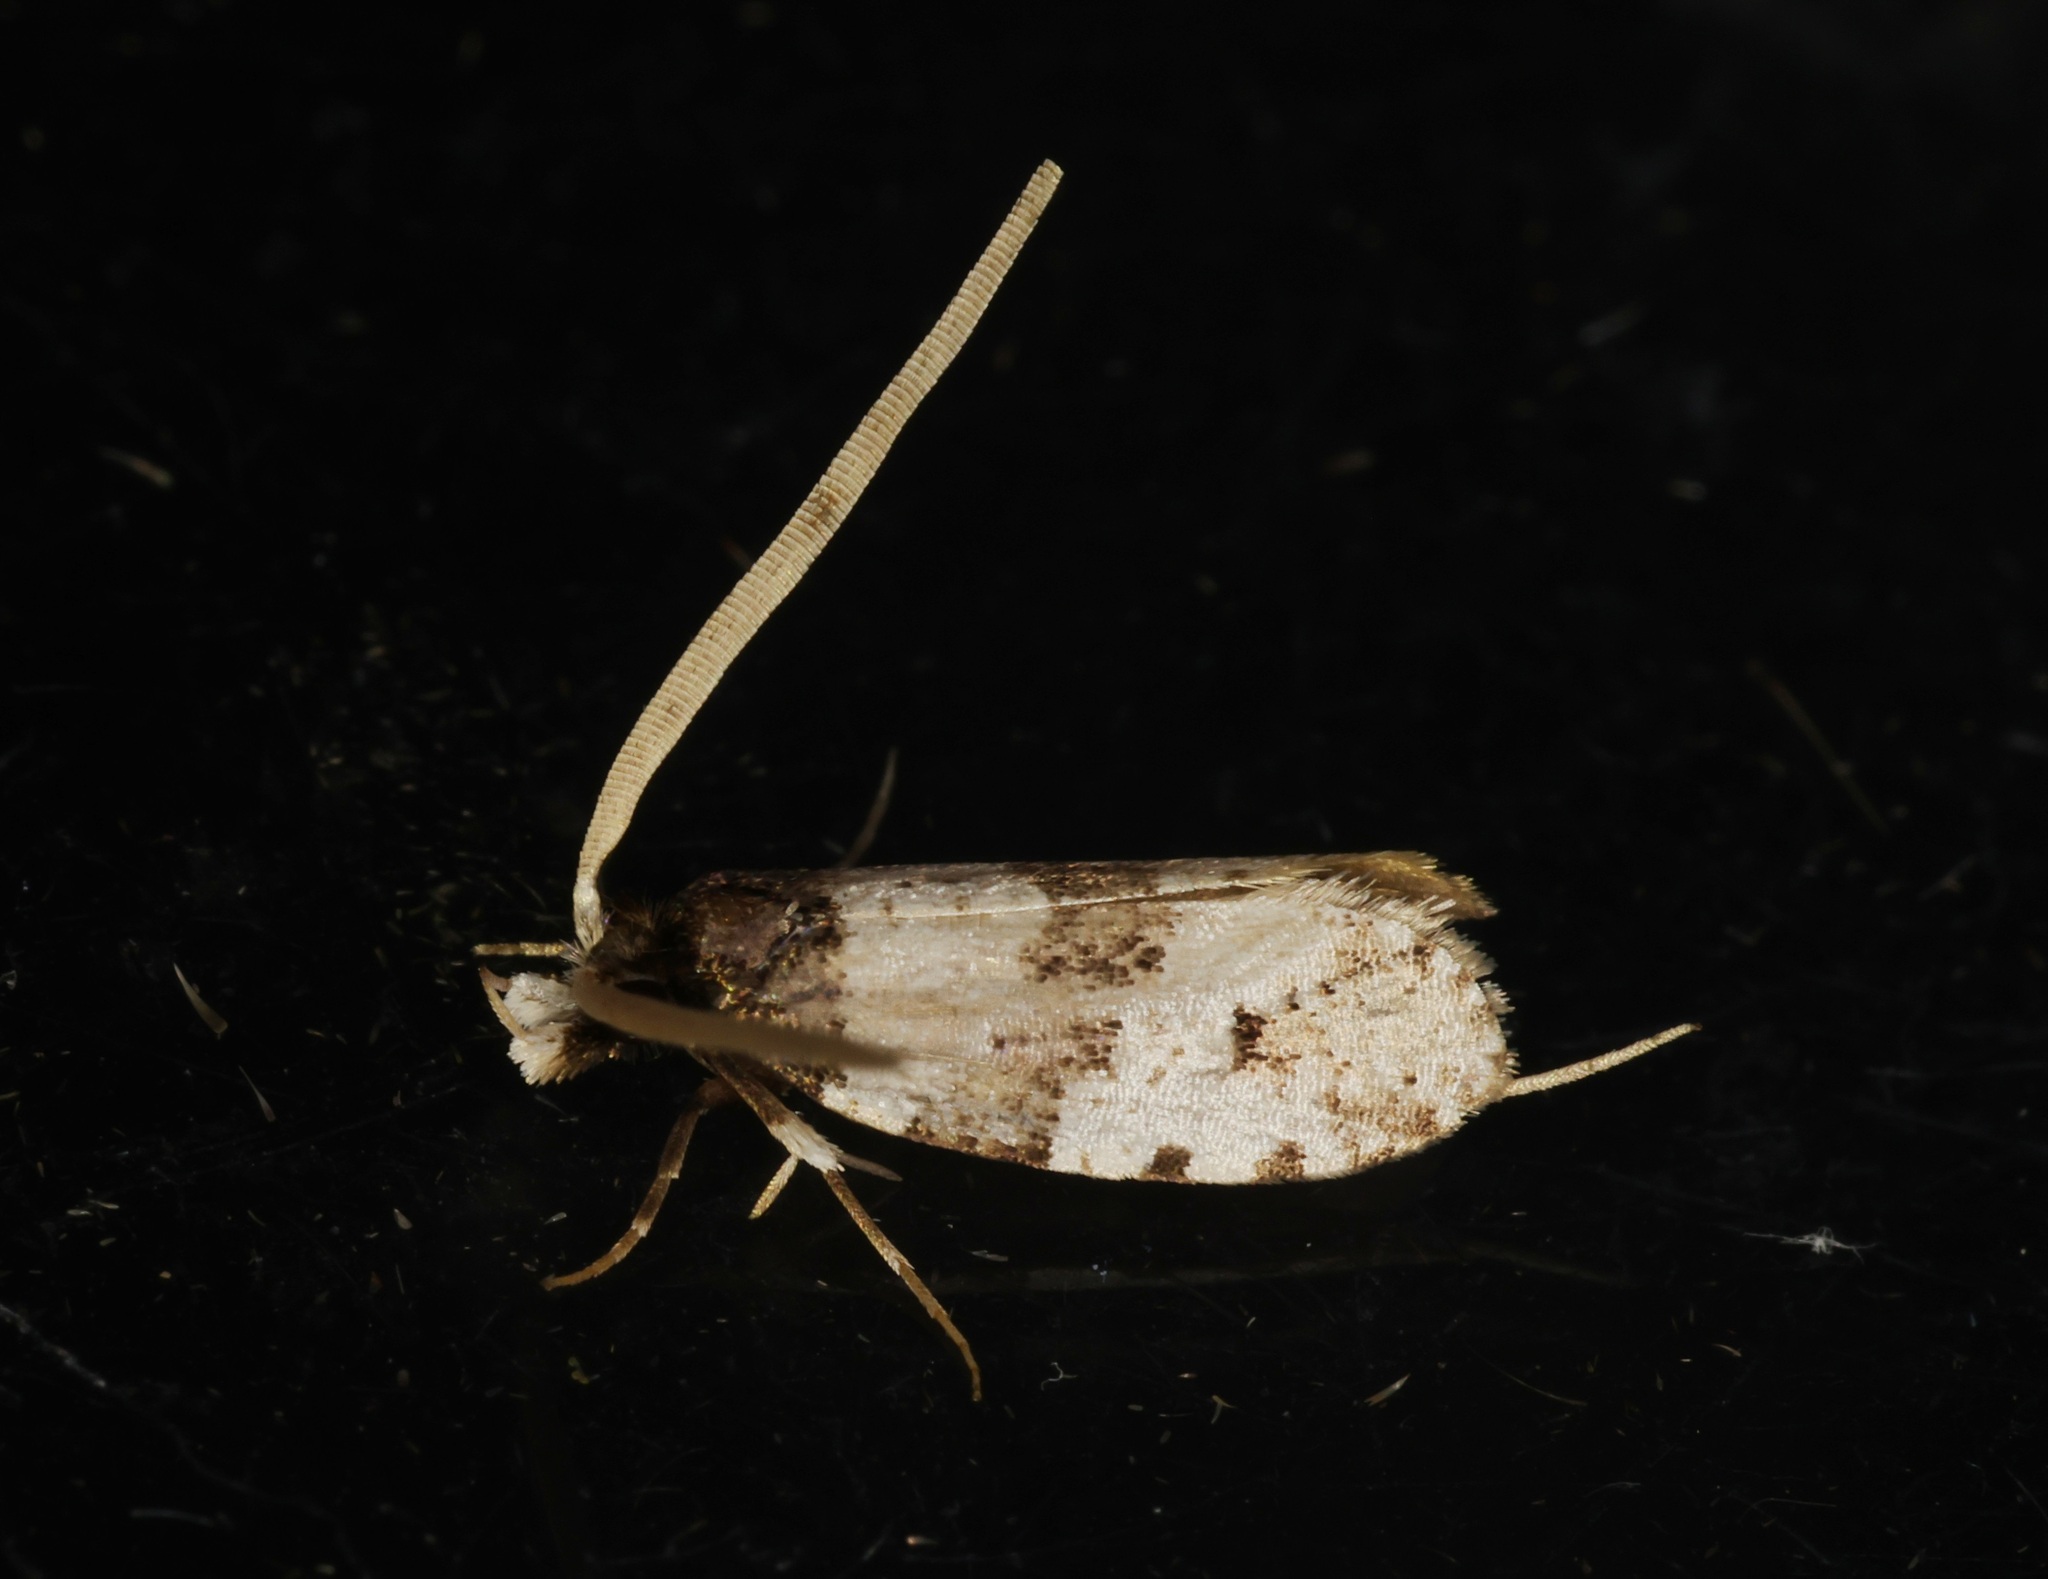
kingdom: Animalia
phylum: Arthropoda
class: Insecta
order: Lepidoptera
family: Tineidae
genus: Thisizima
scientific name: Thisizima fasciaria
